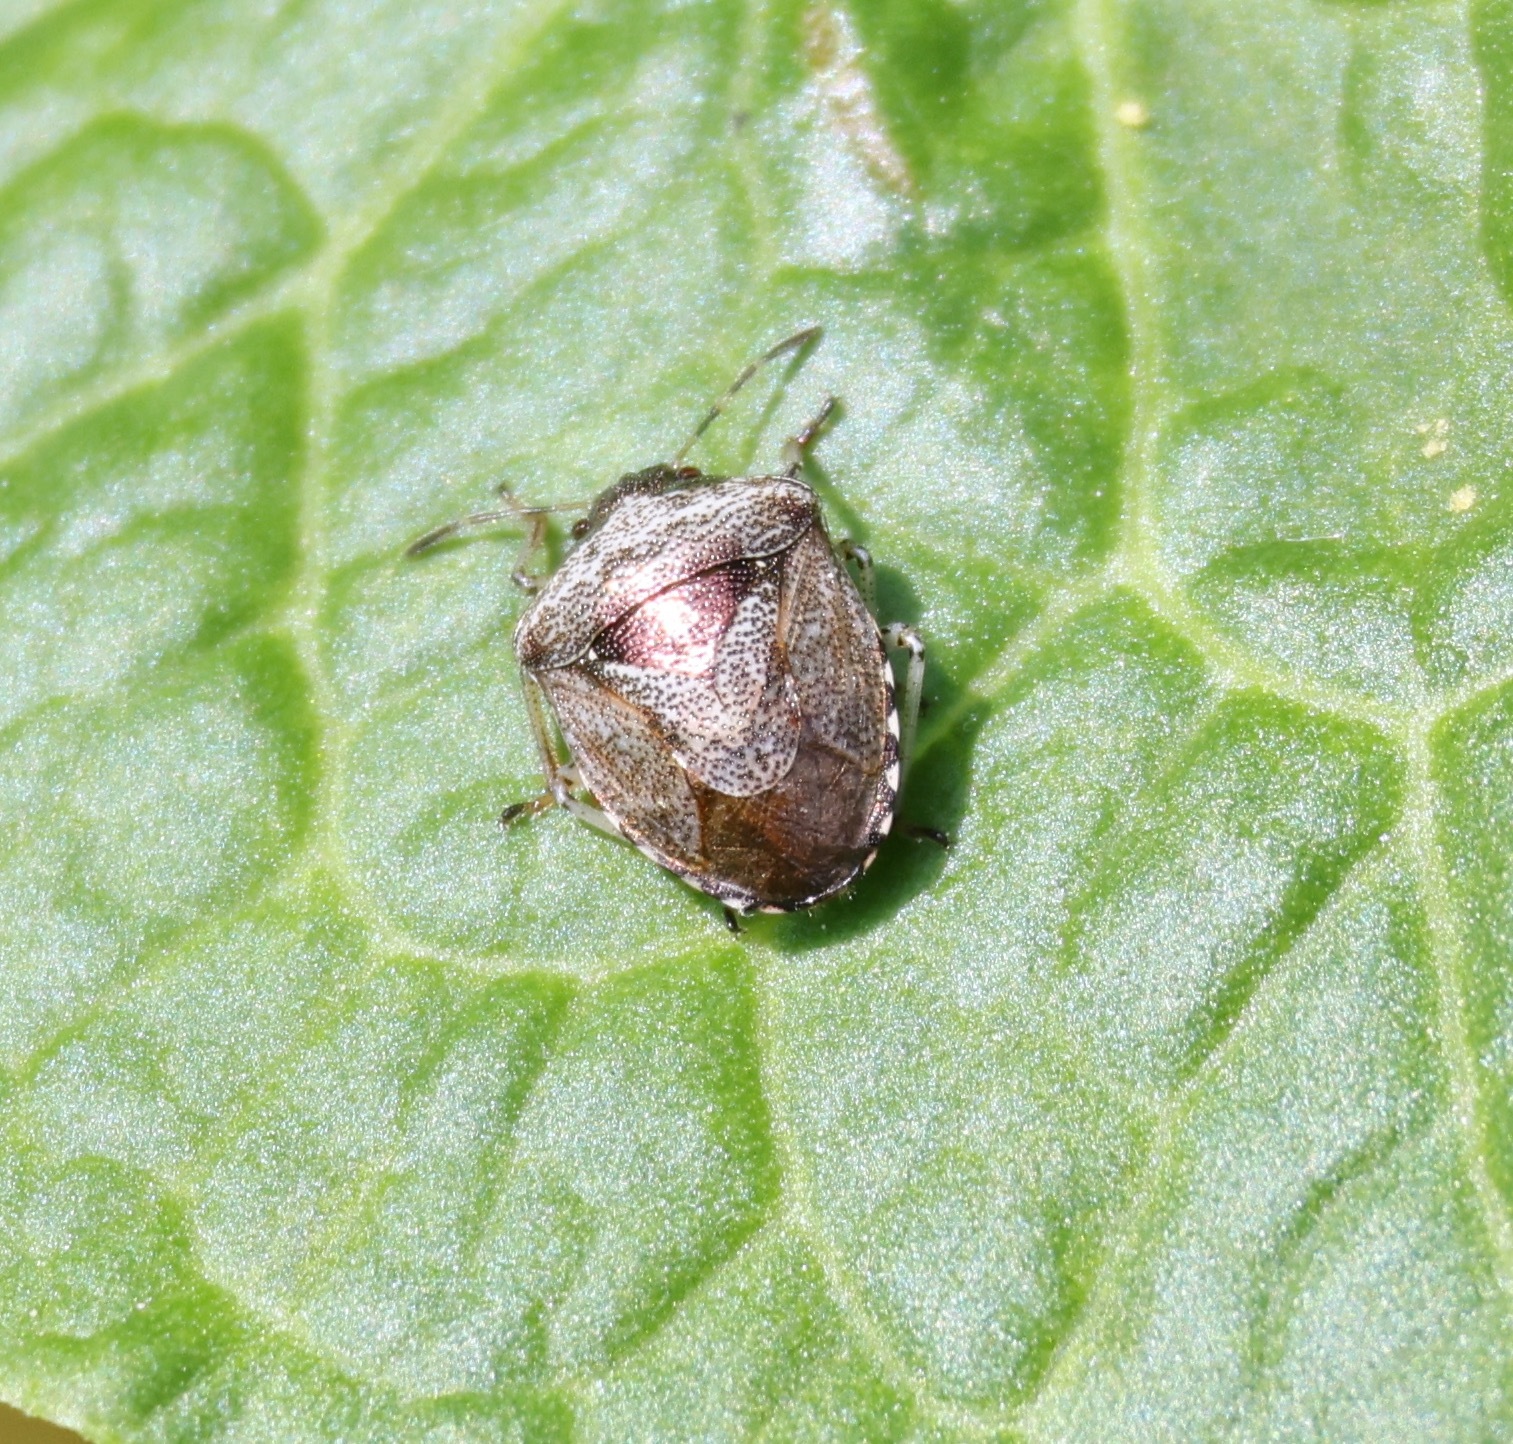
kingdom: Animalia
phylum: Arthropoda
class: Insecta
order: Hemiptera
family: Pentatomidae
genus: Eysarcoris
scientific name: Eysarcoris venustissimus
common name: Woundwort shieldbug
